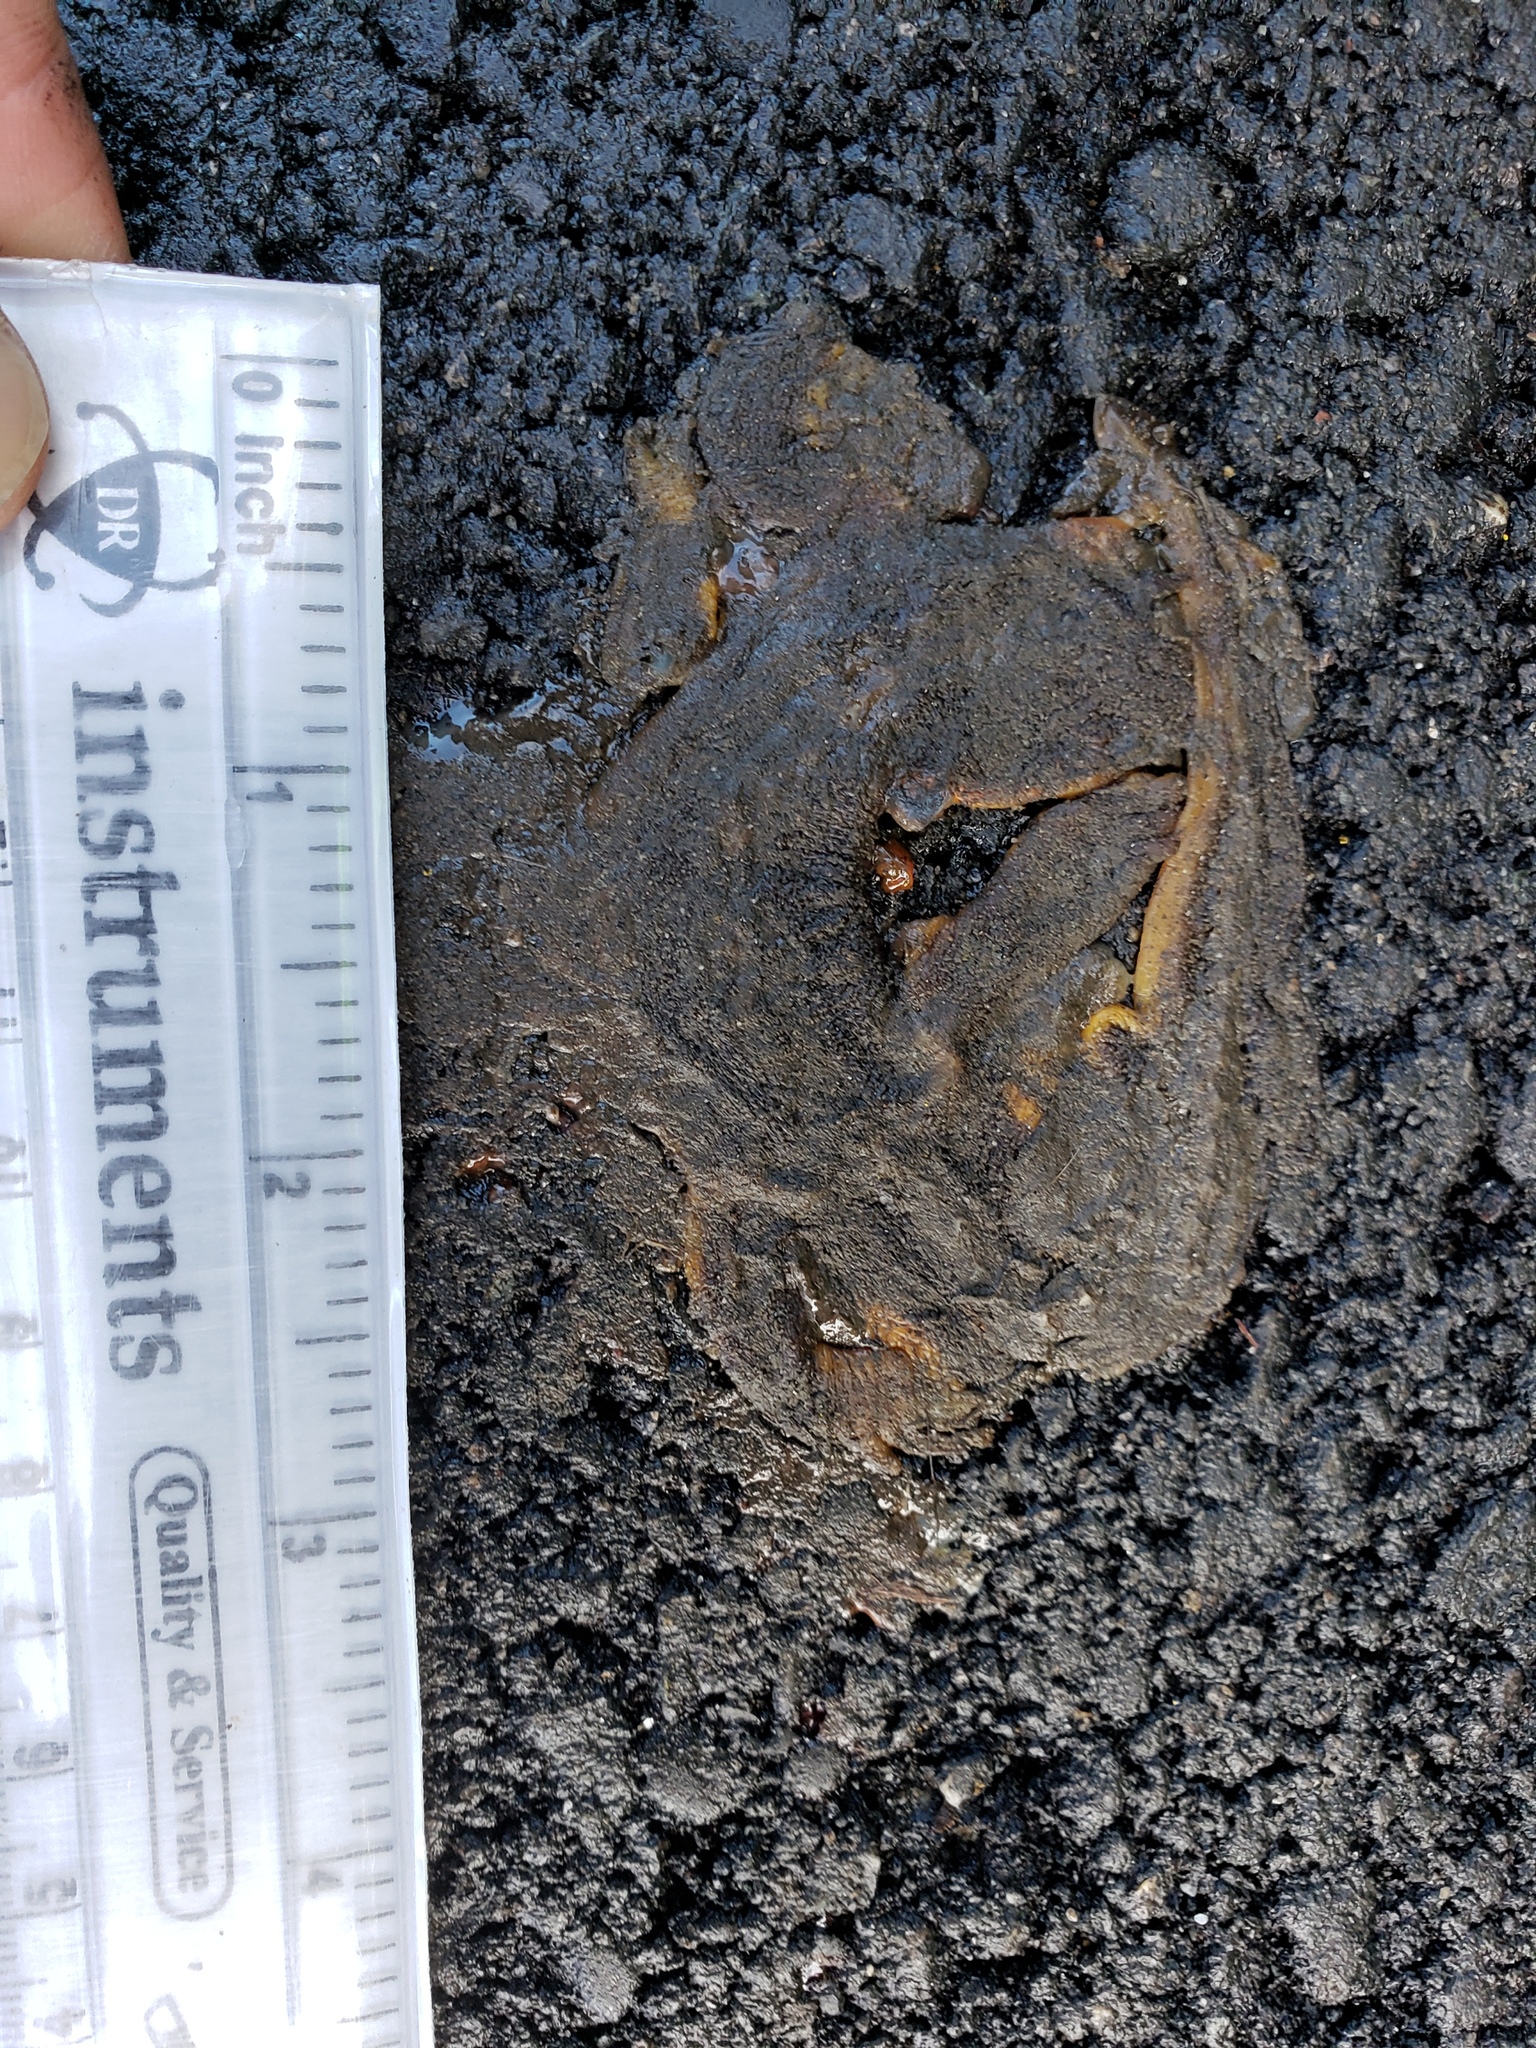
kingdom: Animalia
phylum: Chordata
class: Amphibia
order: Caudata
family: Salamandridae
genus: Taricha
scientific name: Taricha
